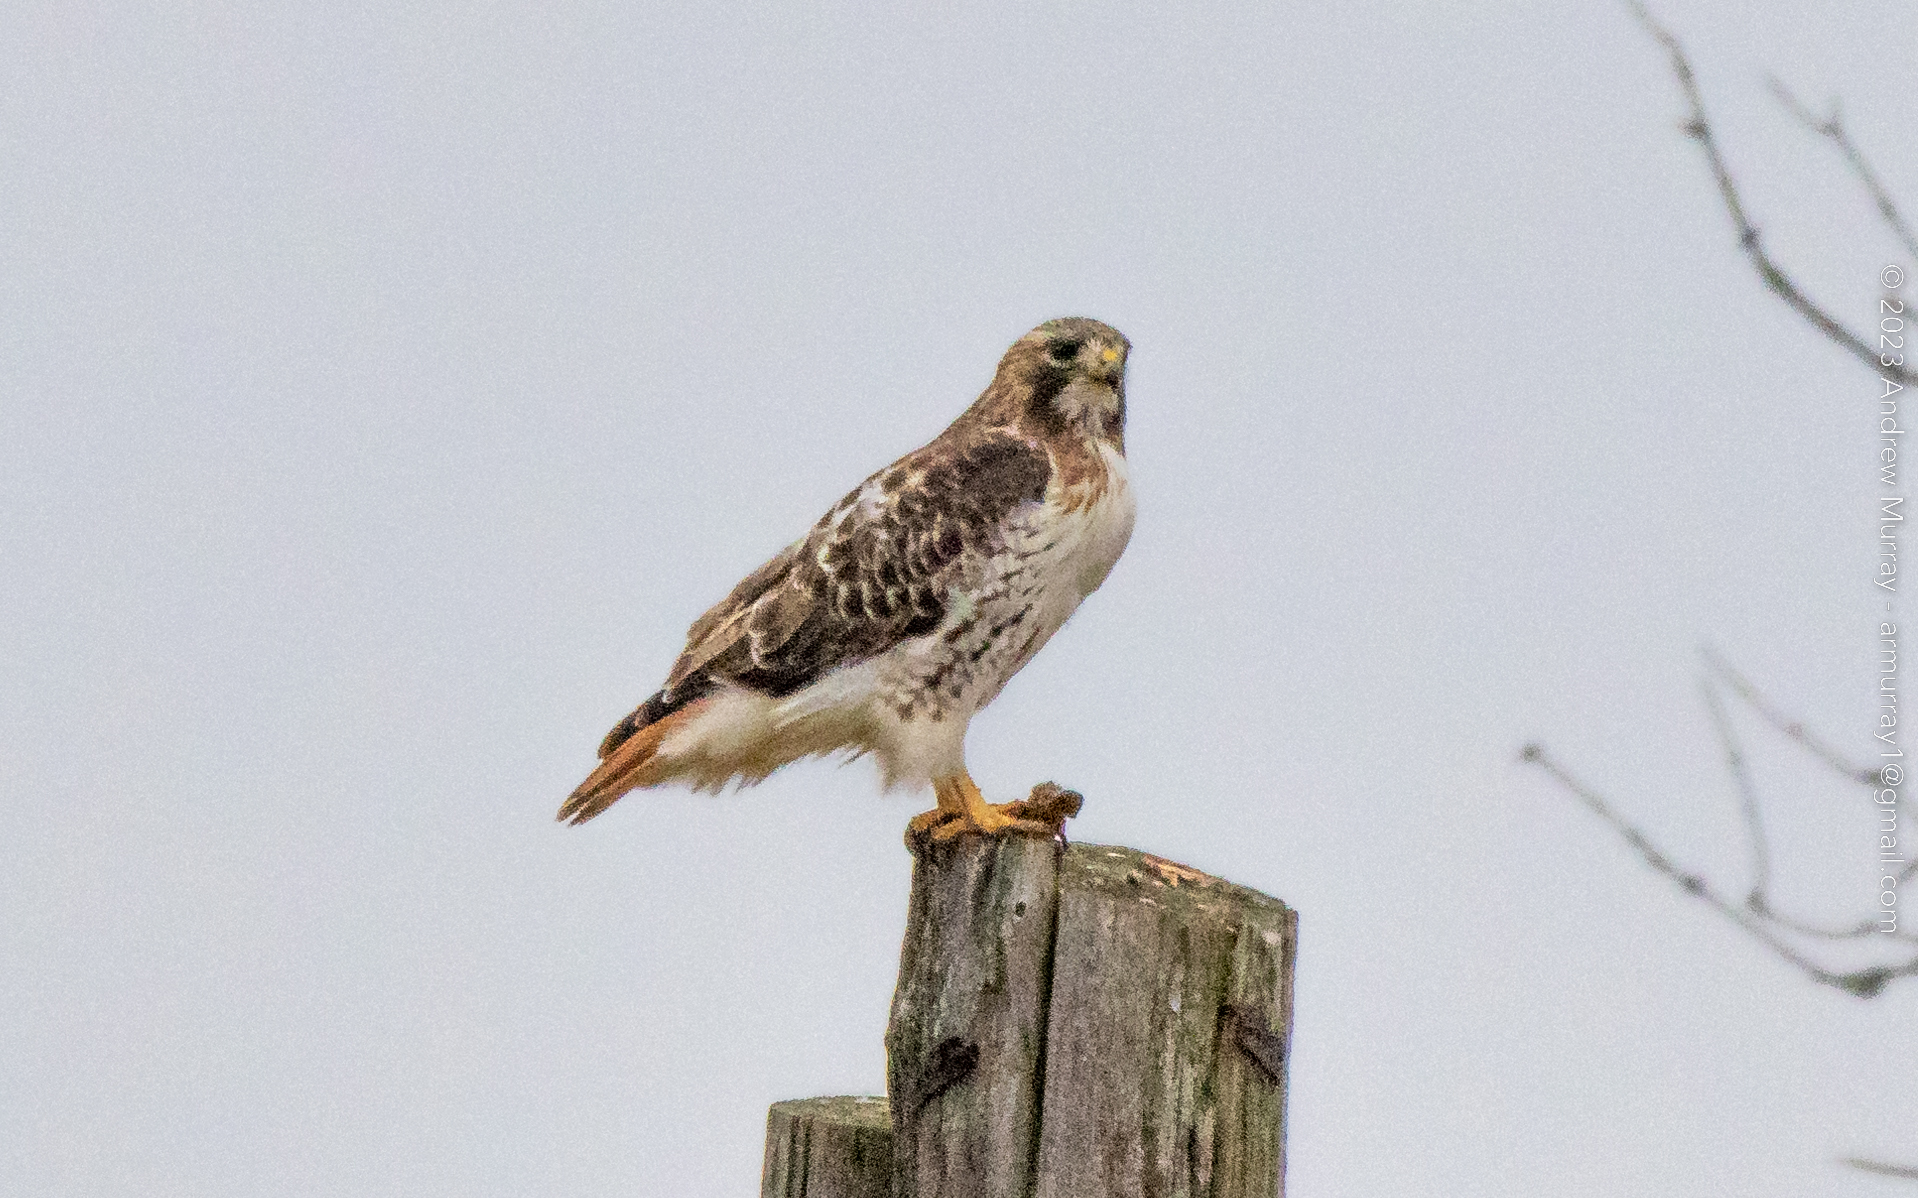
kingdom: Animalia
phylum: Chordata
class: Aves
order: Accipitriformes
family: Accipitridae
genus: Buteo
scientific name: Buteo jamaicensis
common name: Red-tailed hawk
